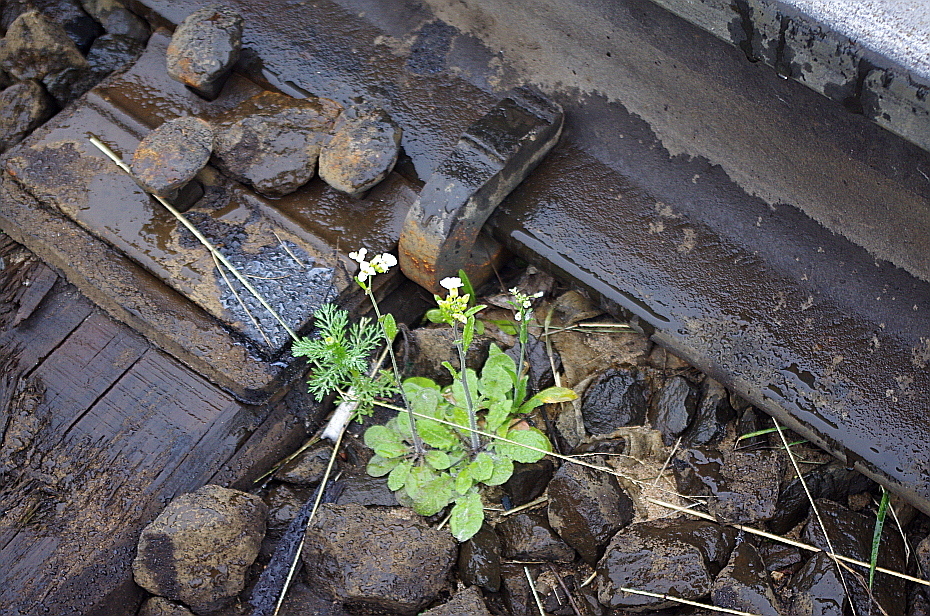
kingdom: Plantae
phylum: Tracheophyta
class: Magnoliopsida
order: Brassicales
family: Brassicaceae
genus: Arabidopsis
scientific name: Arabidopsis arenosa
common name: Sand rock-cress
